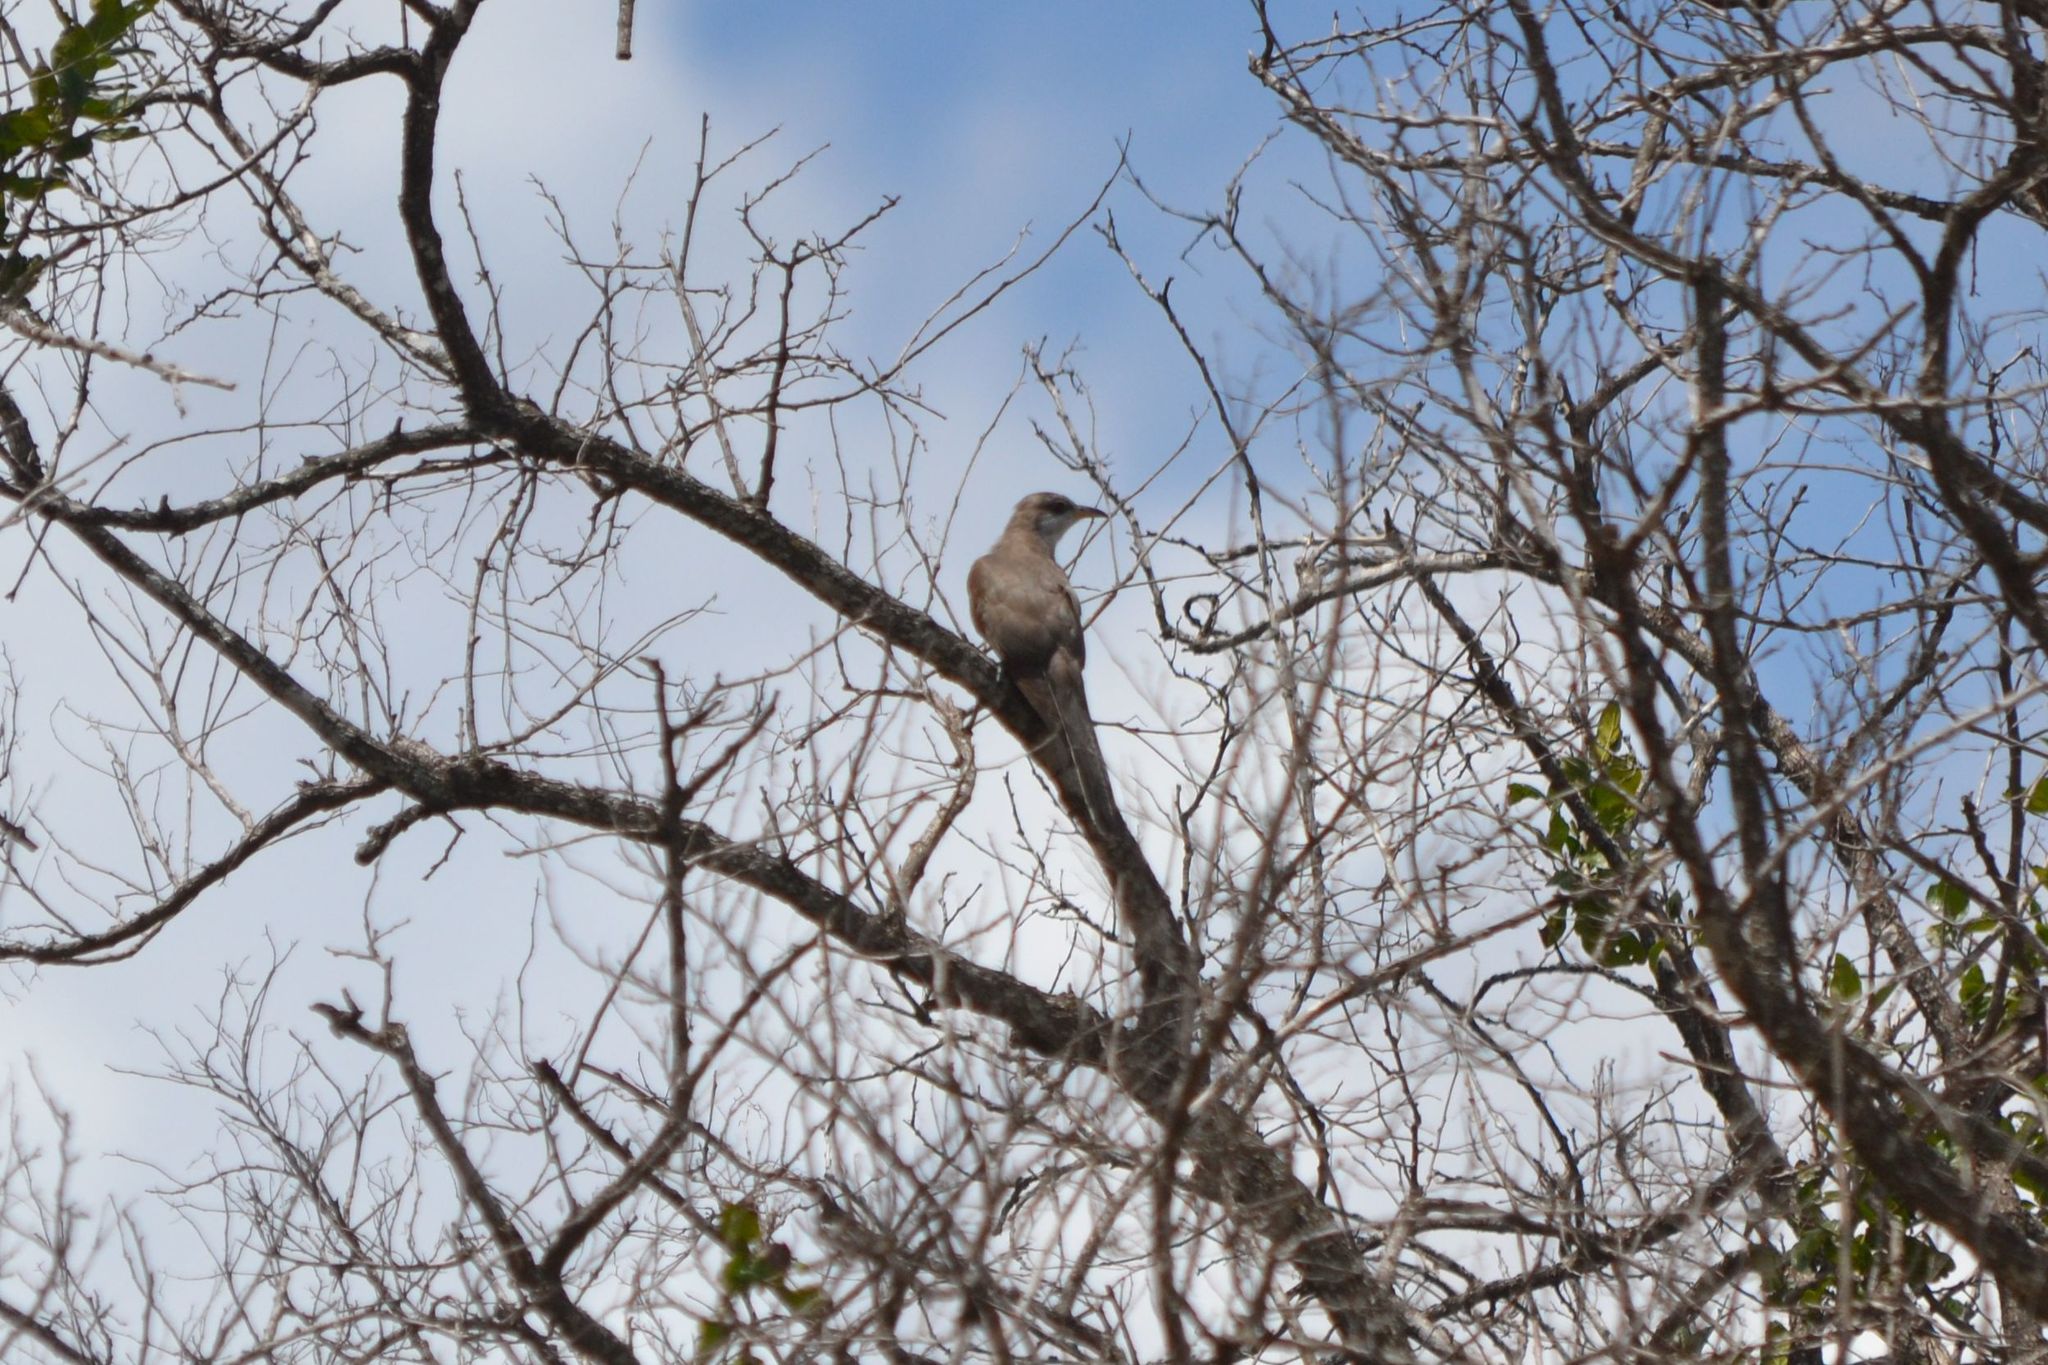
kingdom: Animalia
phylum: Chordata
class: Aves
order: Cuculiformes
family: Cuculidae
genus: Coccyzus
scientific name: Coccyzus americanus
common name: Yellow-billed cuckoo
